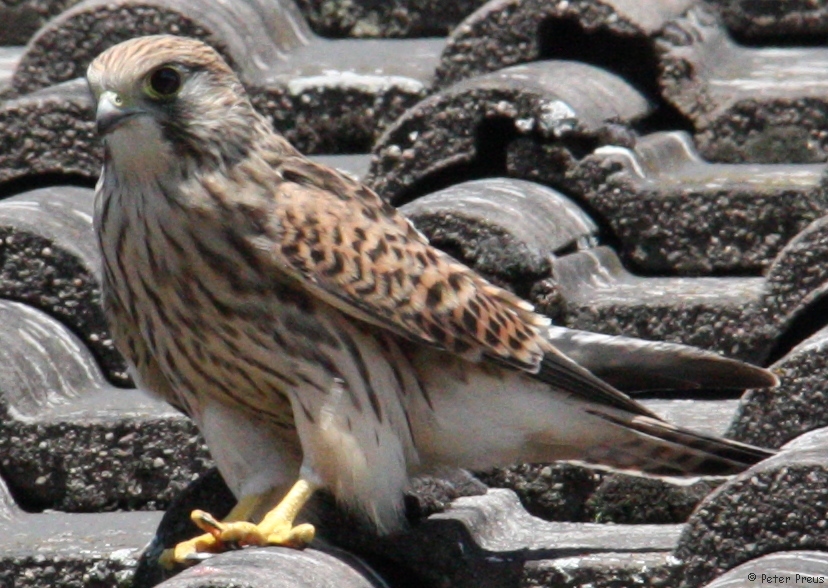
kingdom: Animalia
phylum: Chordata
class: Aves
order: Falconiformes
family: Falconidae
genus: Falco
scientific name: Falco tinnunculus
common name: Common kestrel
